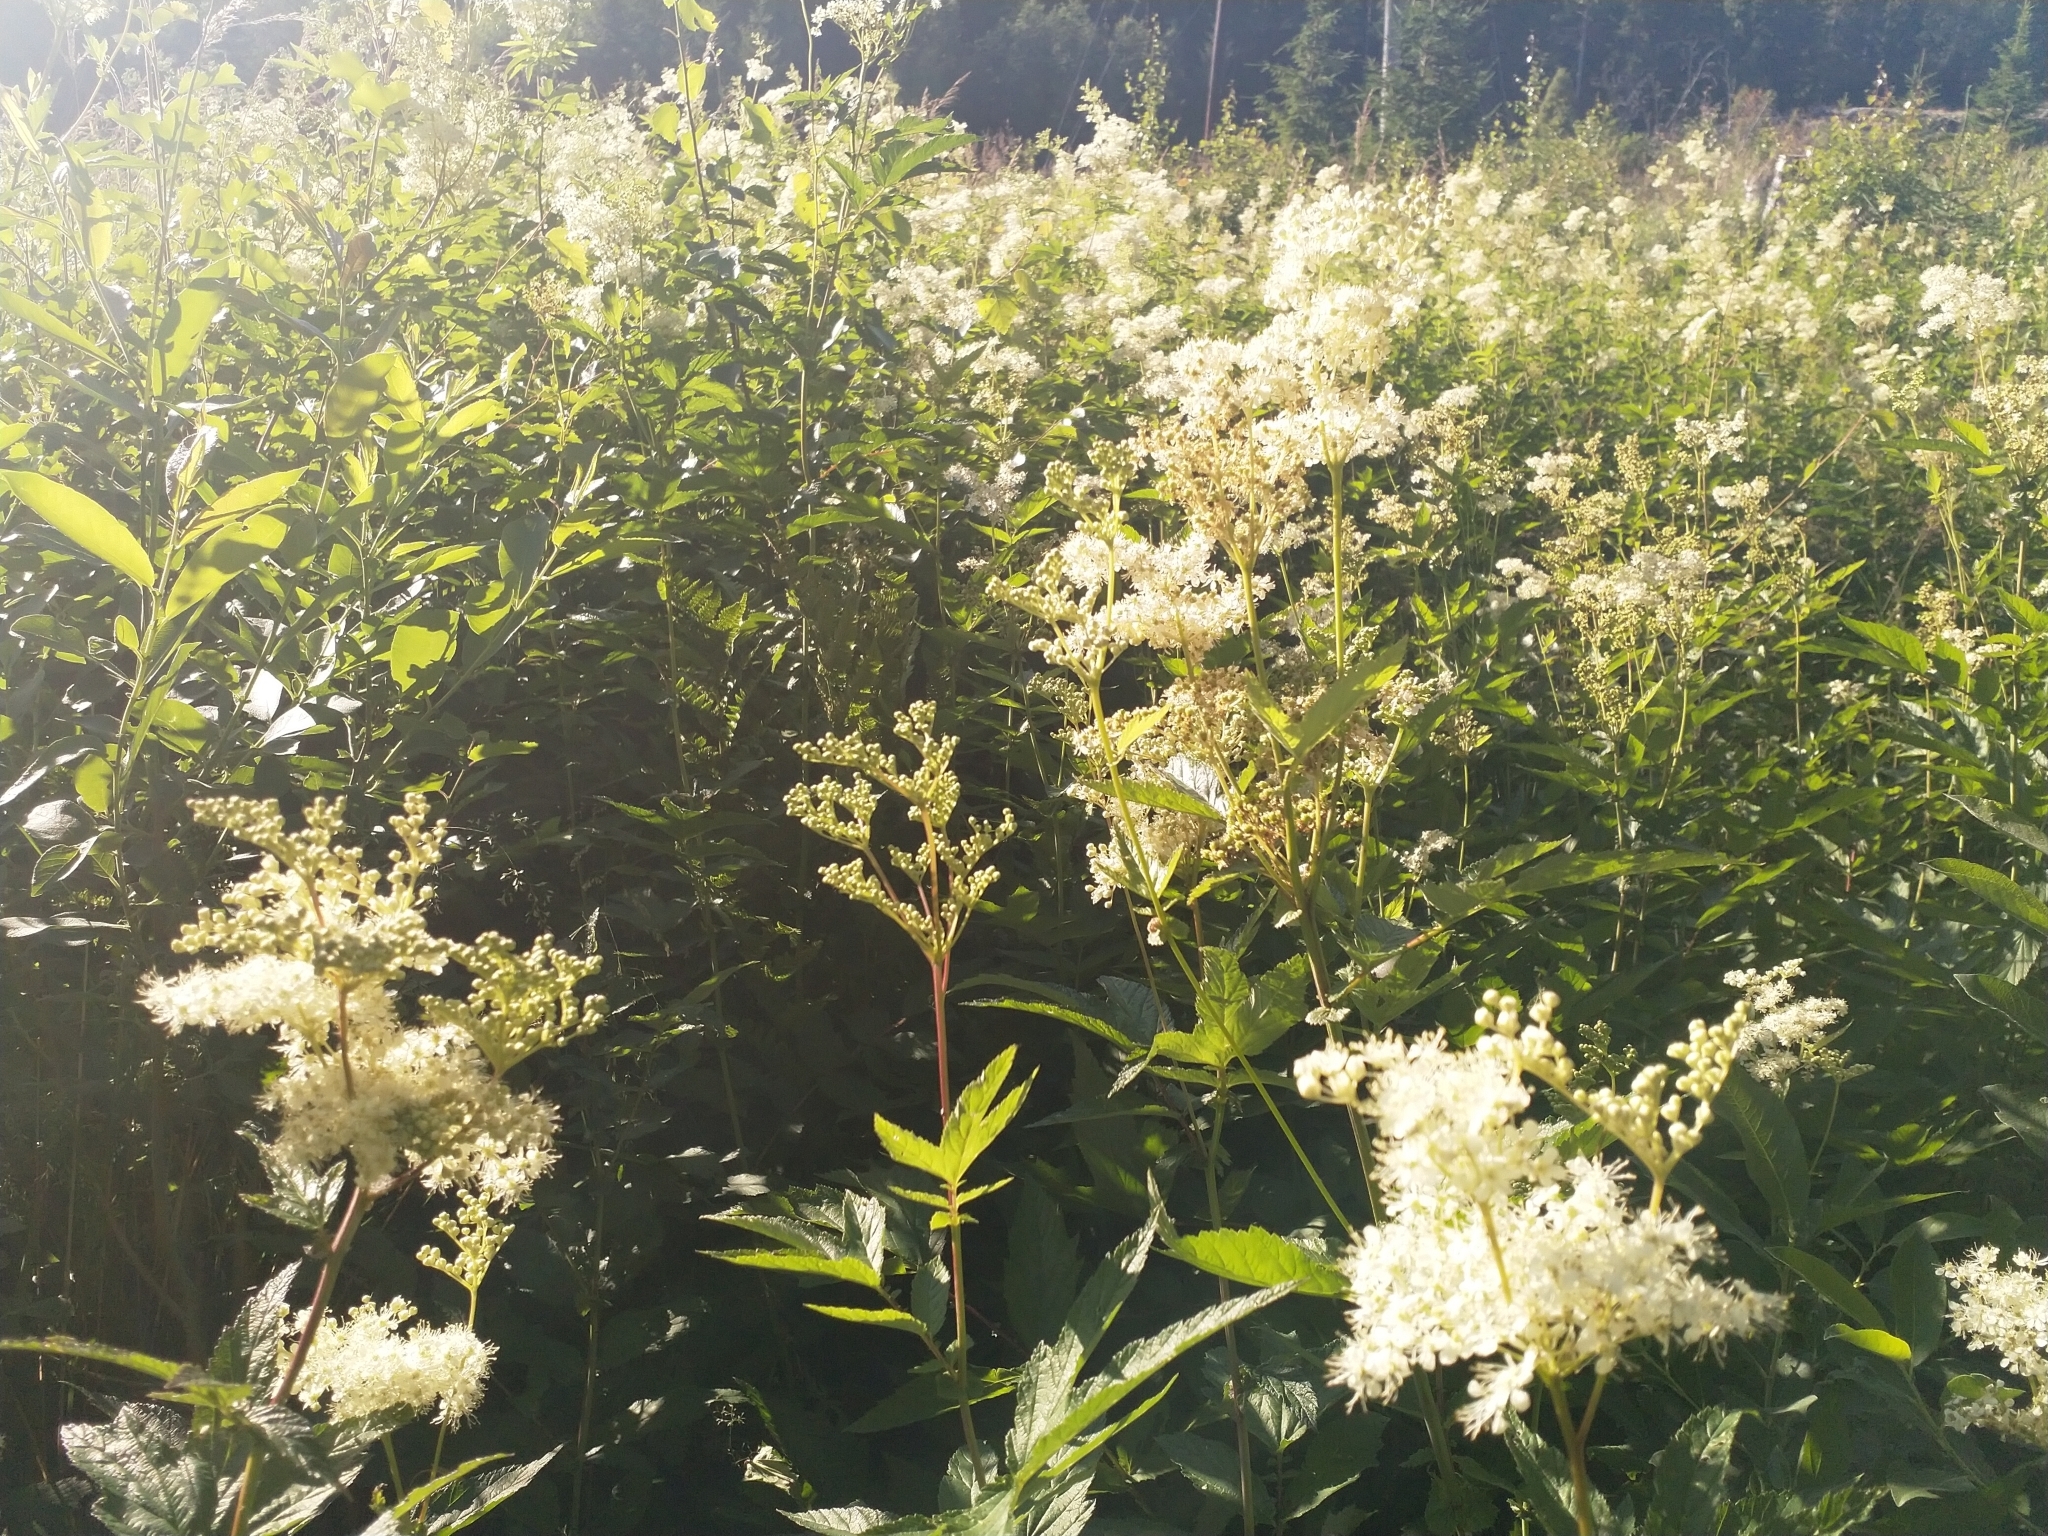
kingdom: Plantae
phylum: Tracheophyta
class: Magnoliopsida
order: Rosales
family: Rosaceae
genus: Filipendula
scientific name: Filipendula ulmaria
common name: Meadowsweet
